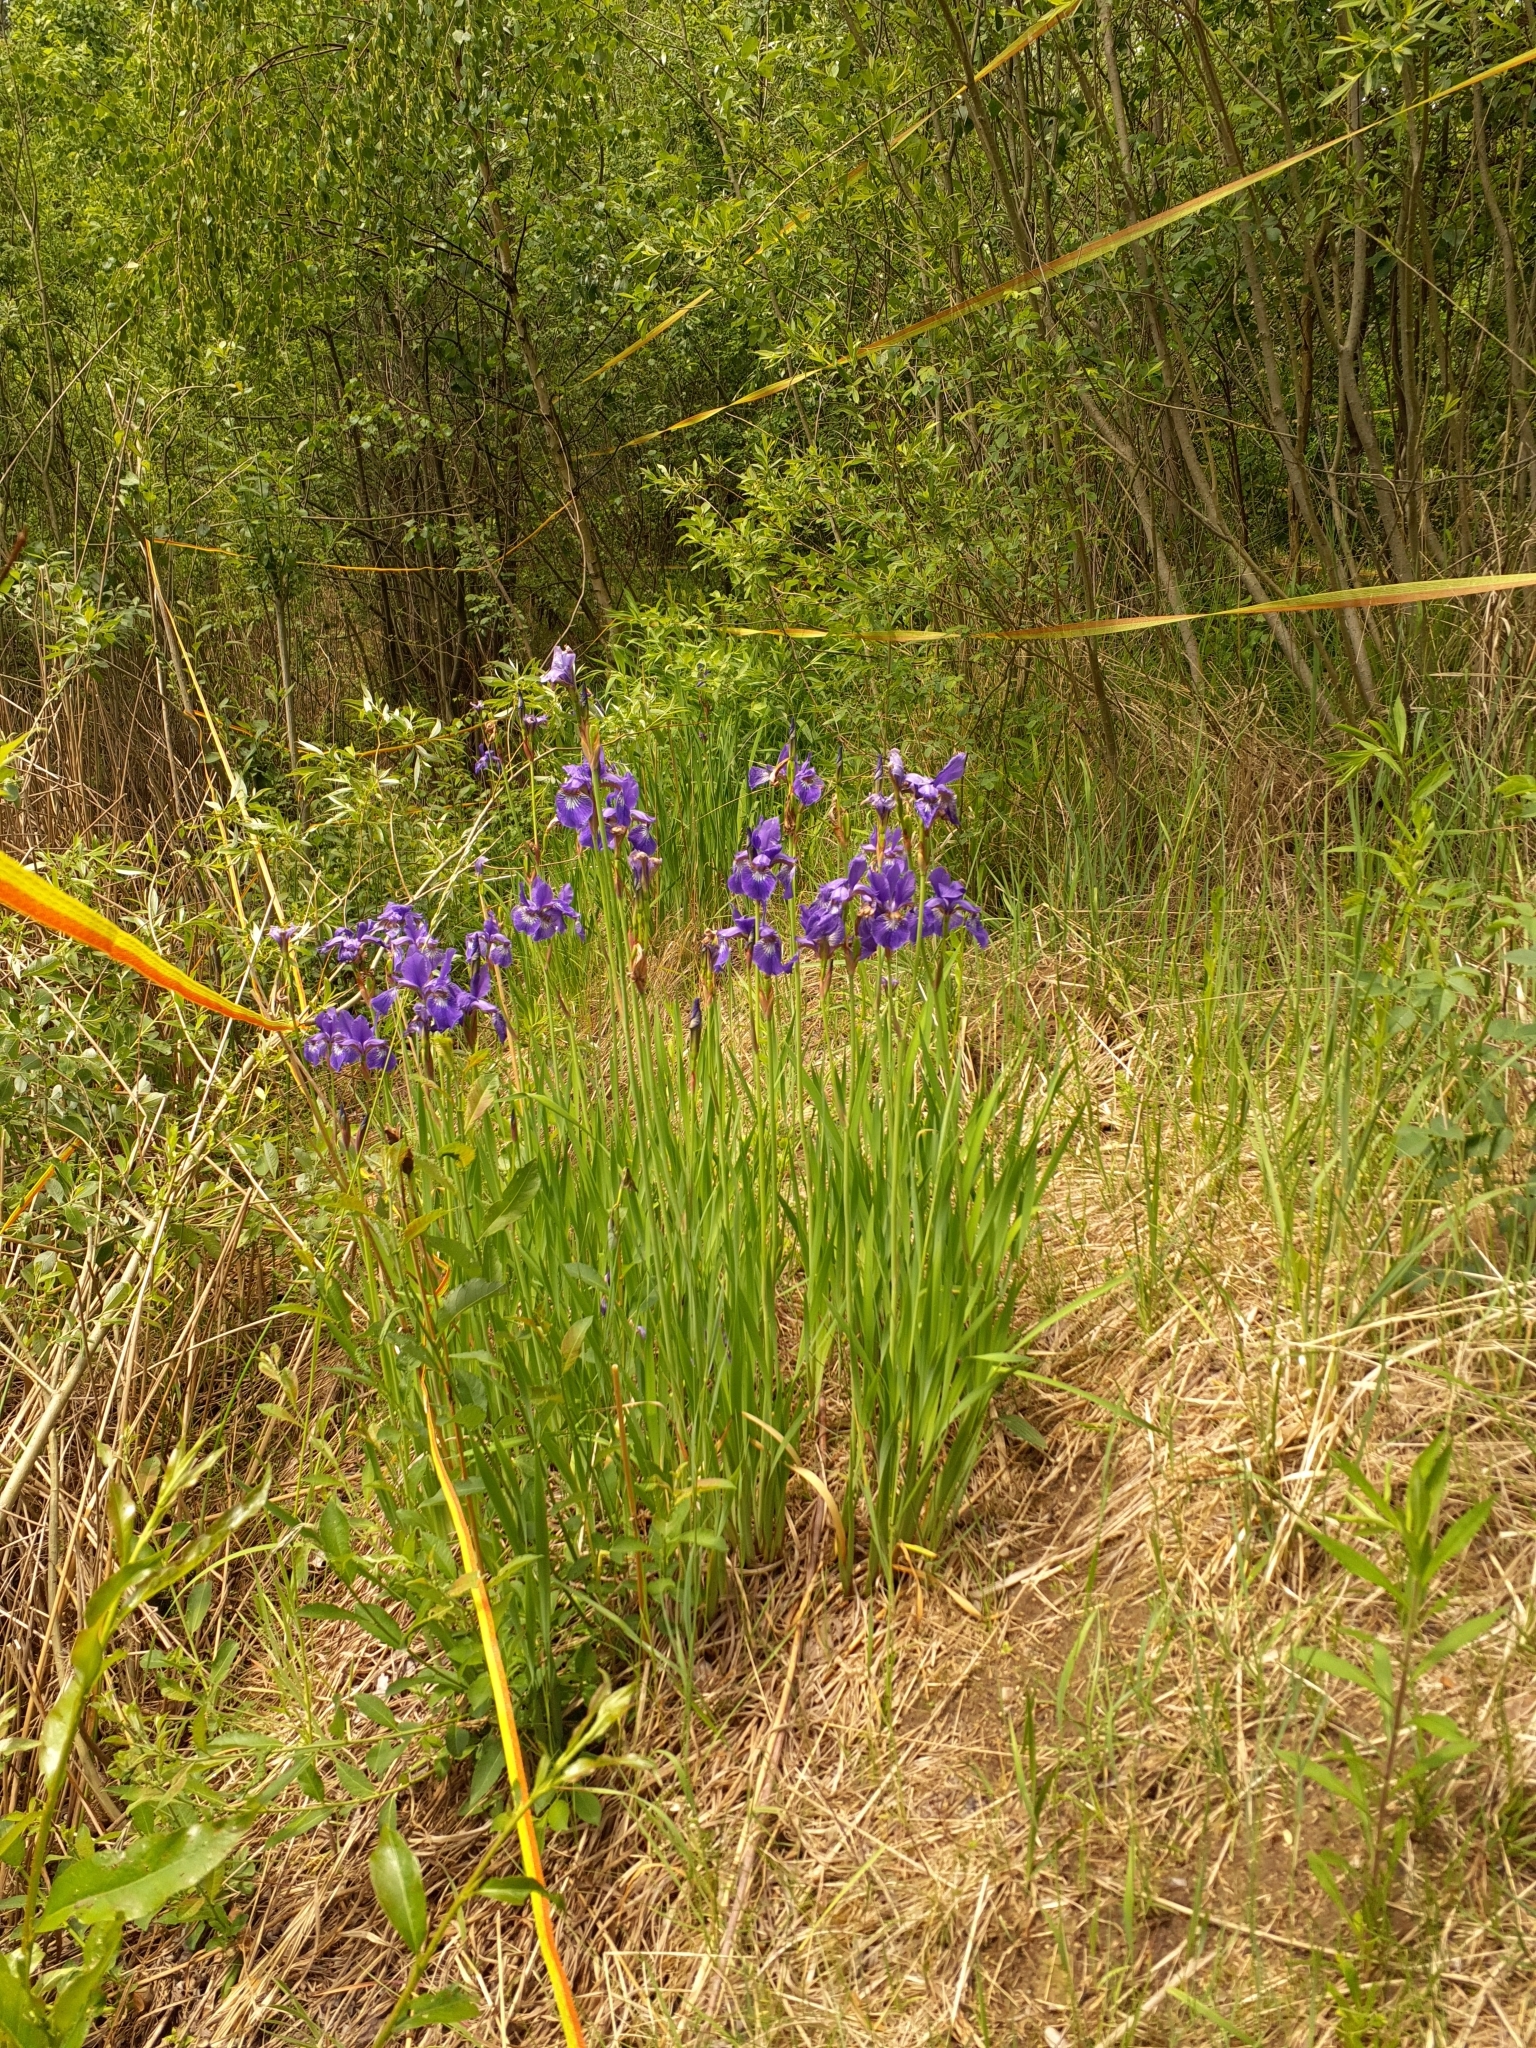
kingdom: Plantae
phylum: Tracheophyta
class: Liliopsida
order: Asparagales
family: Iridaceae
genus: Iris
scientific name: Iris sanguinea
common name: Blood iris
